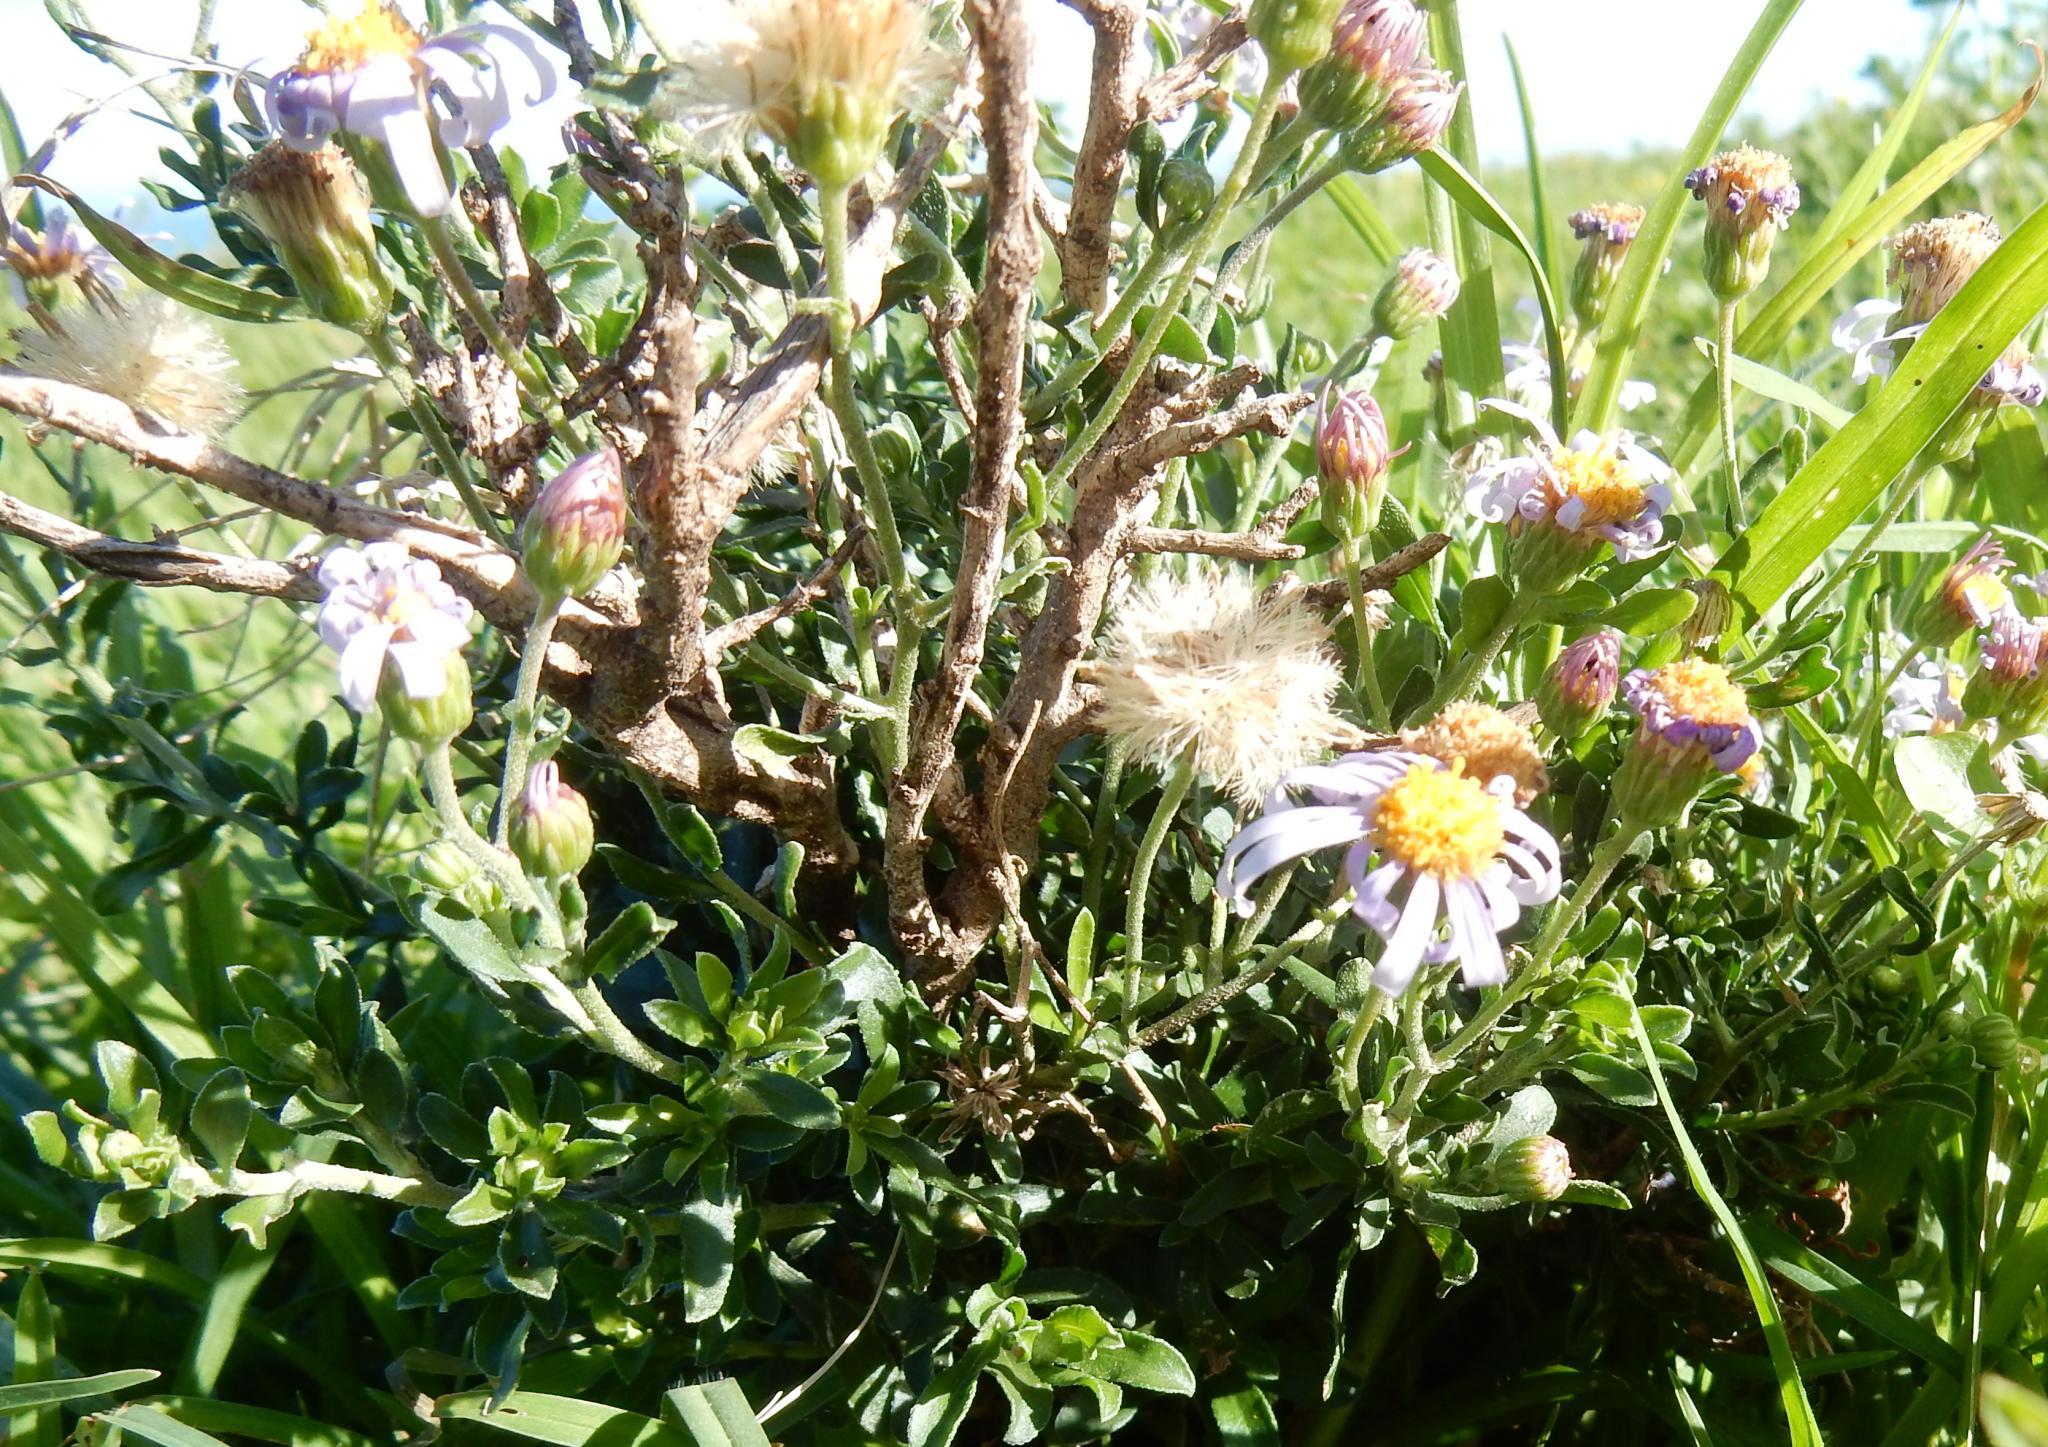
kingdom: Plantae
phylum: Tracheophyta
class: Magnoliopsida
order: Asterales
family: Asteraceae
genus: Felicia
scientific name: Felicia erigeroides
